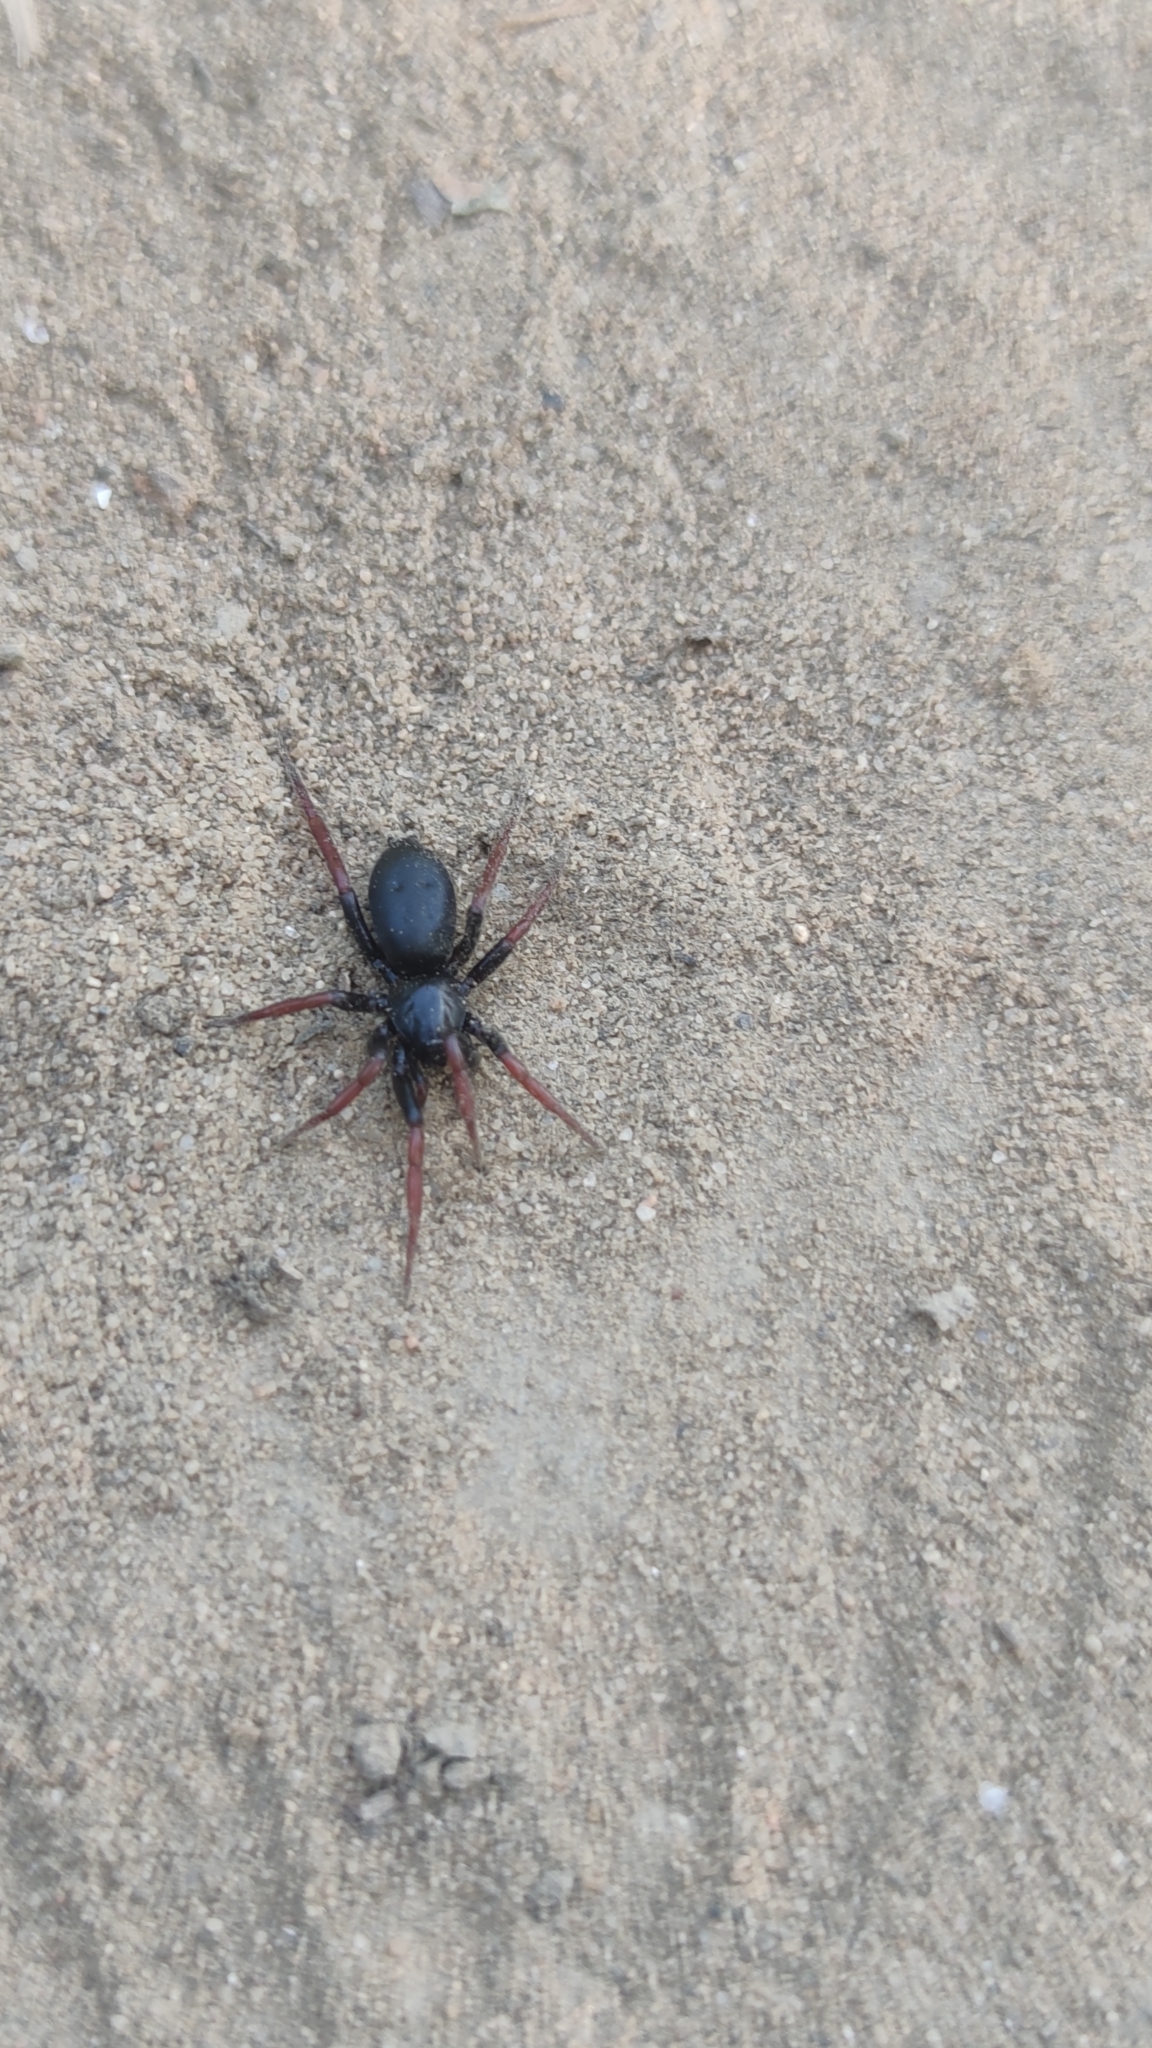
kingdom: Animalia
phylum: Arthropoda
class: Arachnida
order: Araneae
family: Gnaphosidae
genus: Trachyzelotes
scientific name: Trachyzelotes pedestris
